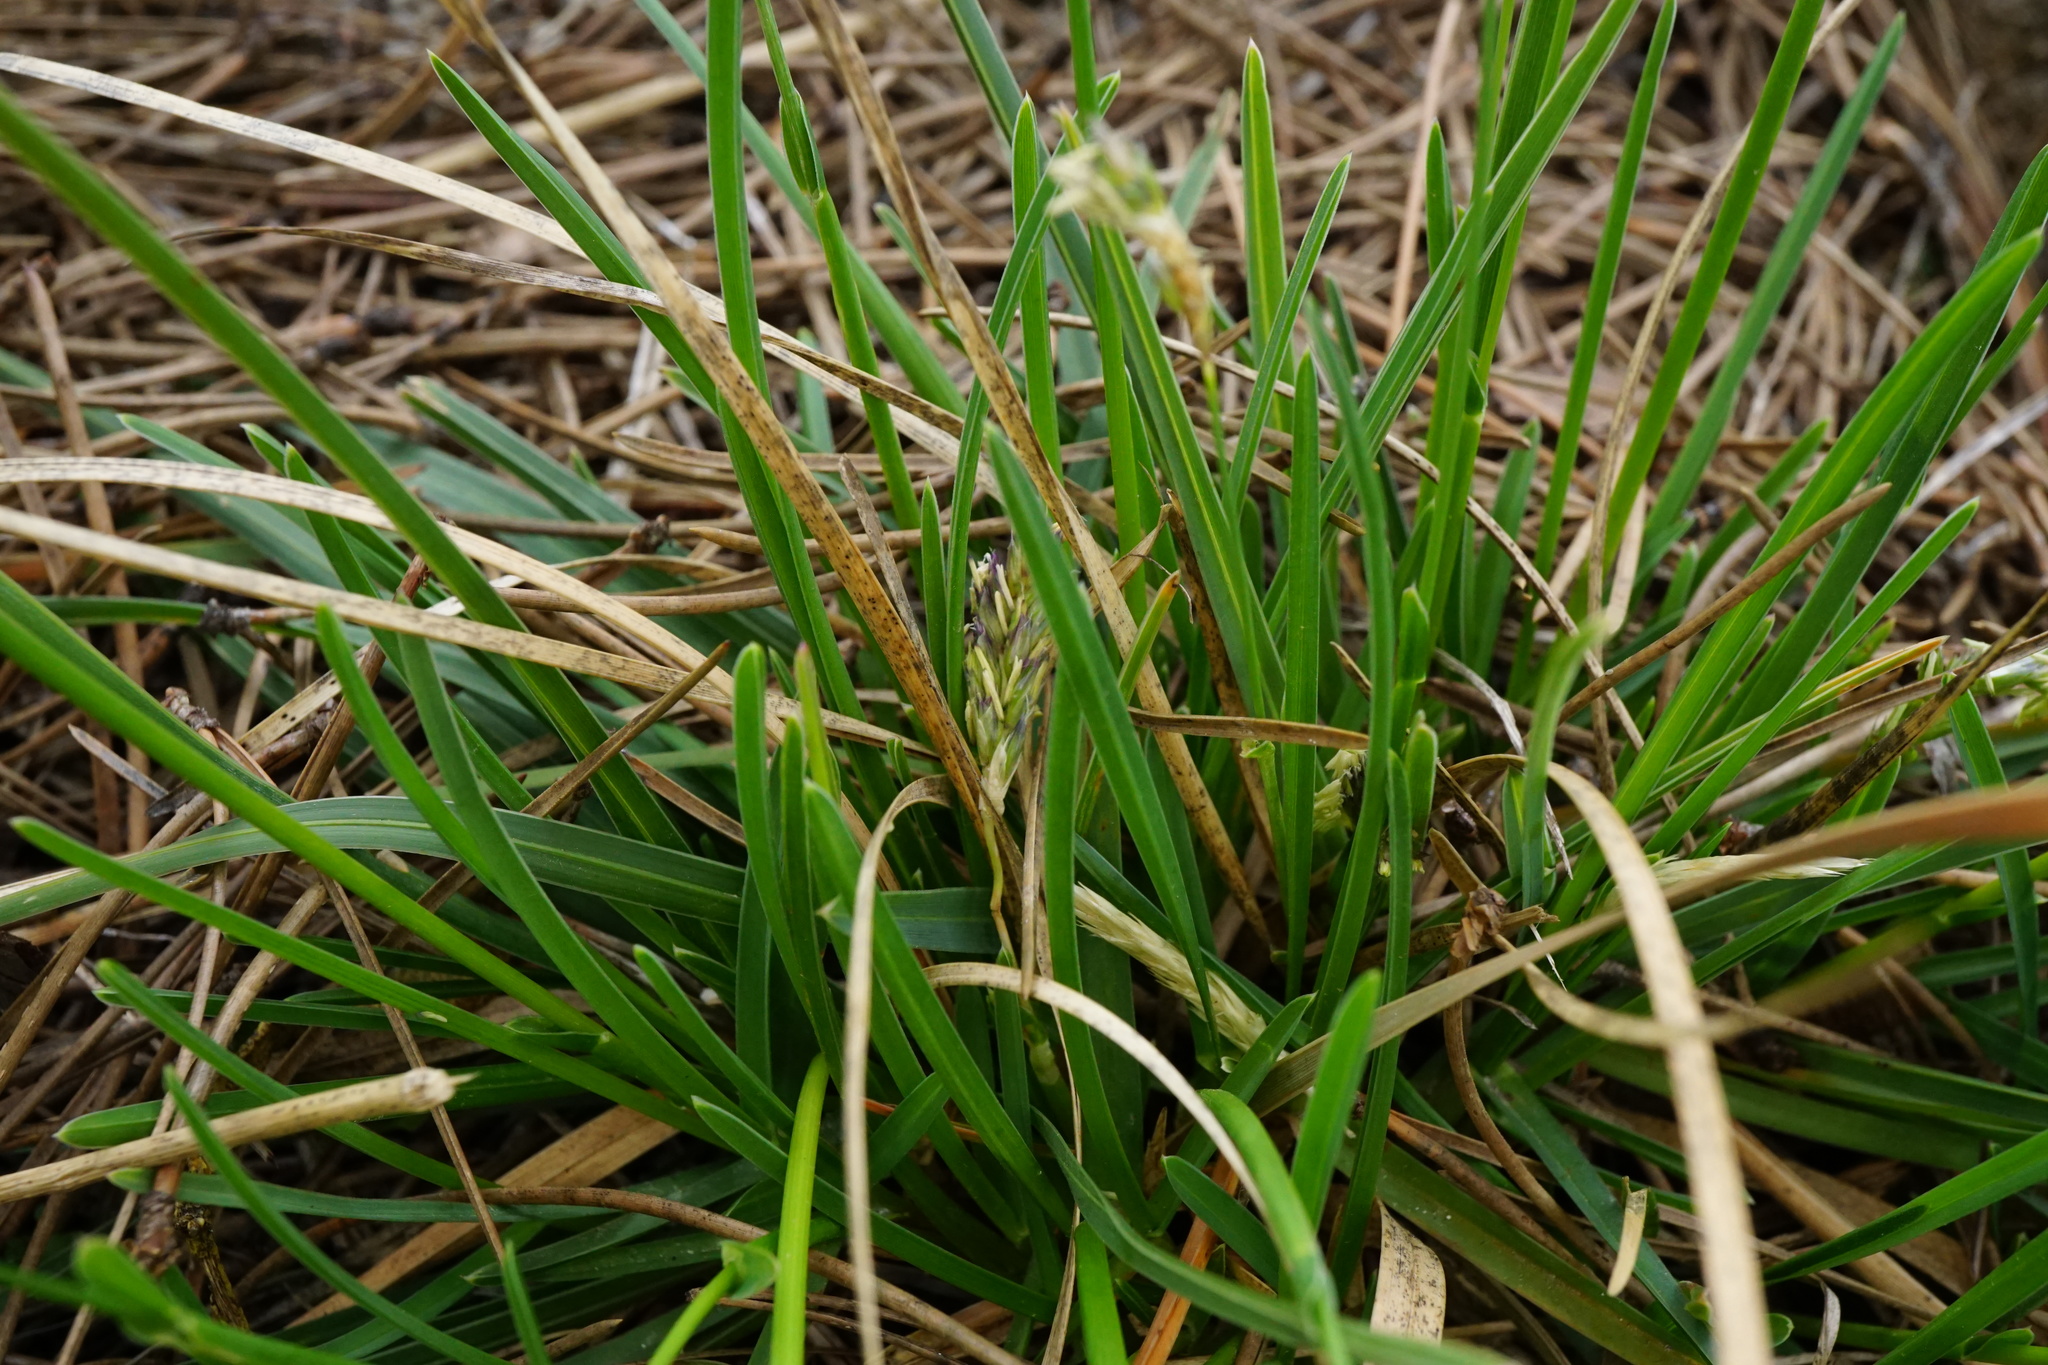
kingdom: Plantae
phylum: Tracheophyta
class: Liliopsida
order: Poales
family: Poaceae
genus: Sesleria
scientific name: Sesleria albicans
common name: Blue moor-grass
